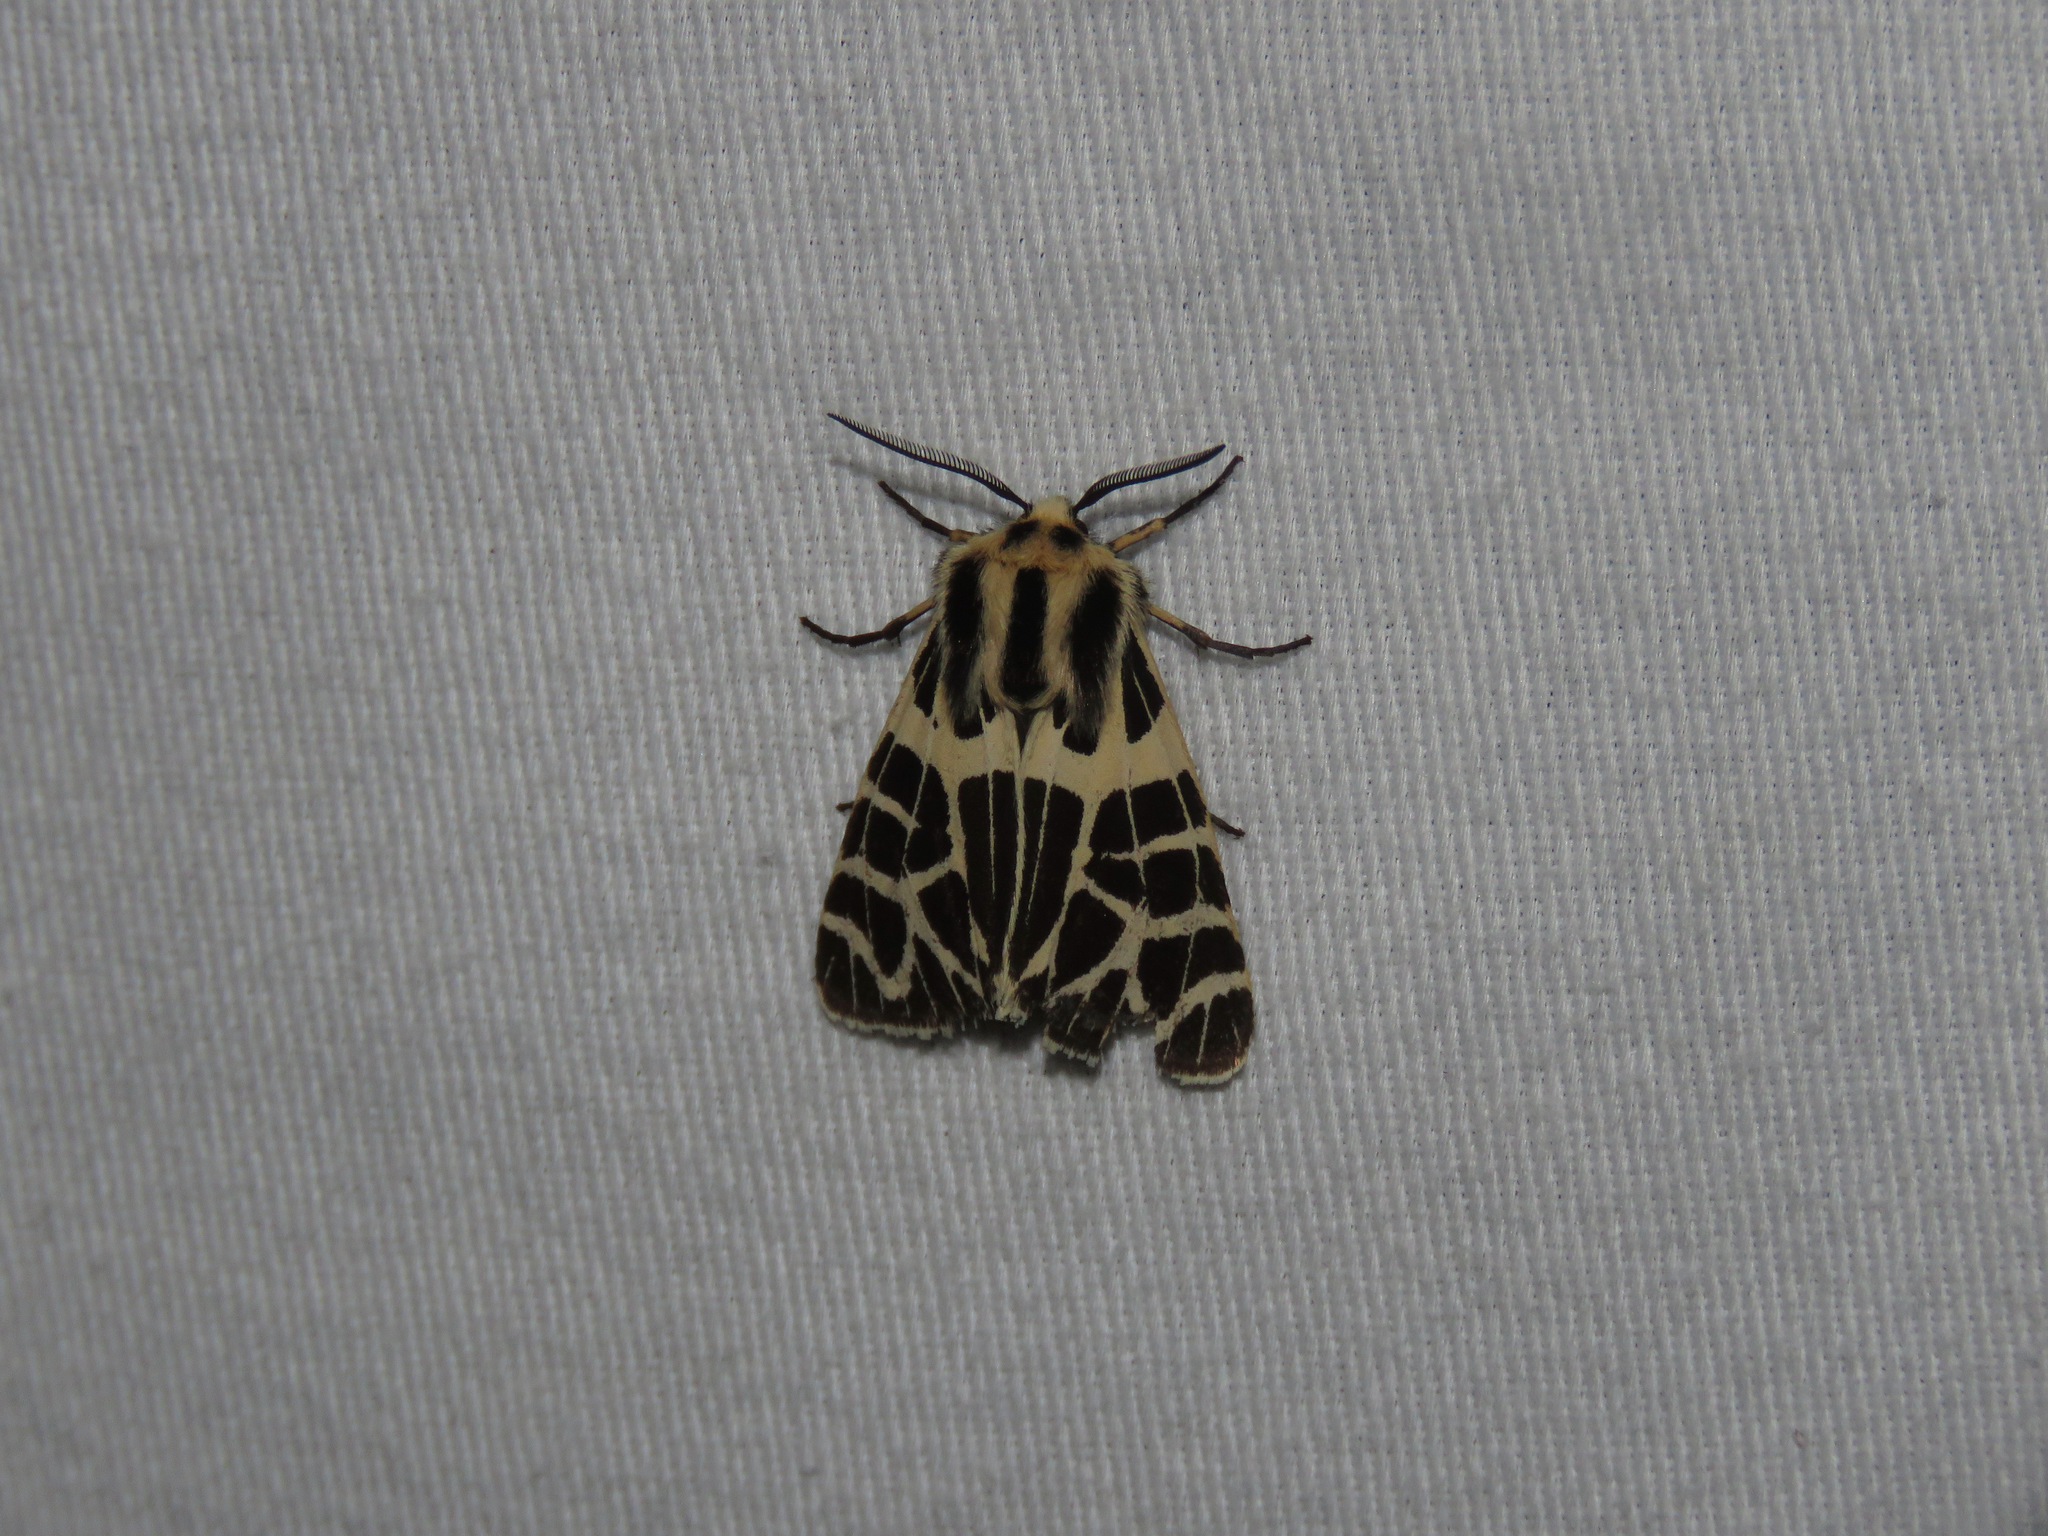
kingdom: Animalia
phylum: Arthropoda
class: Insecta
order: Lepidoptera
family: Erebidae
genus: Apantesis
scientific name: Apantesis
